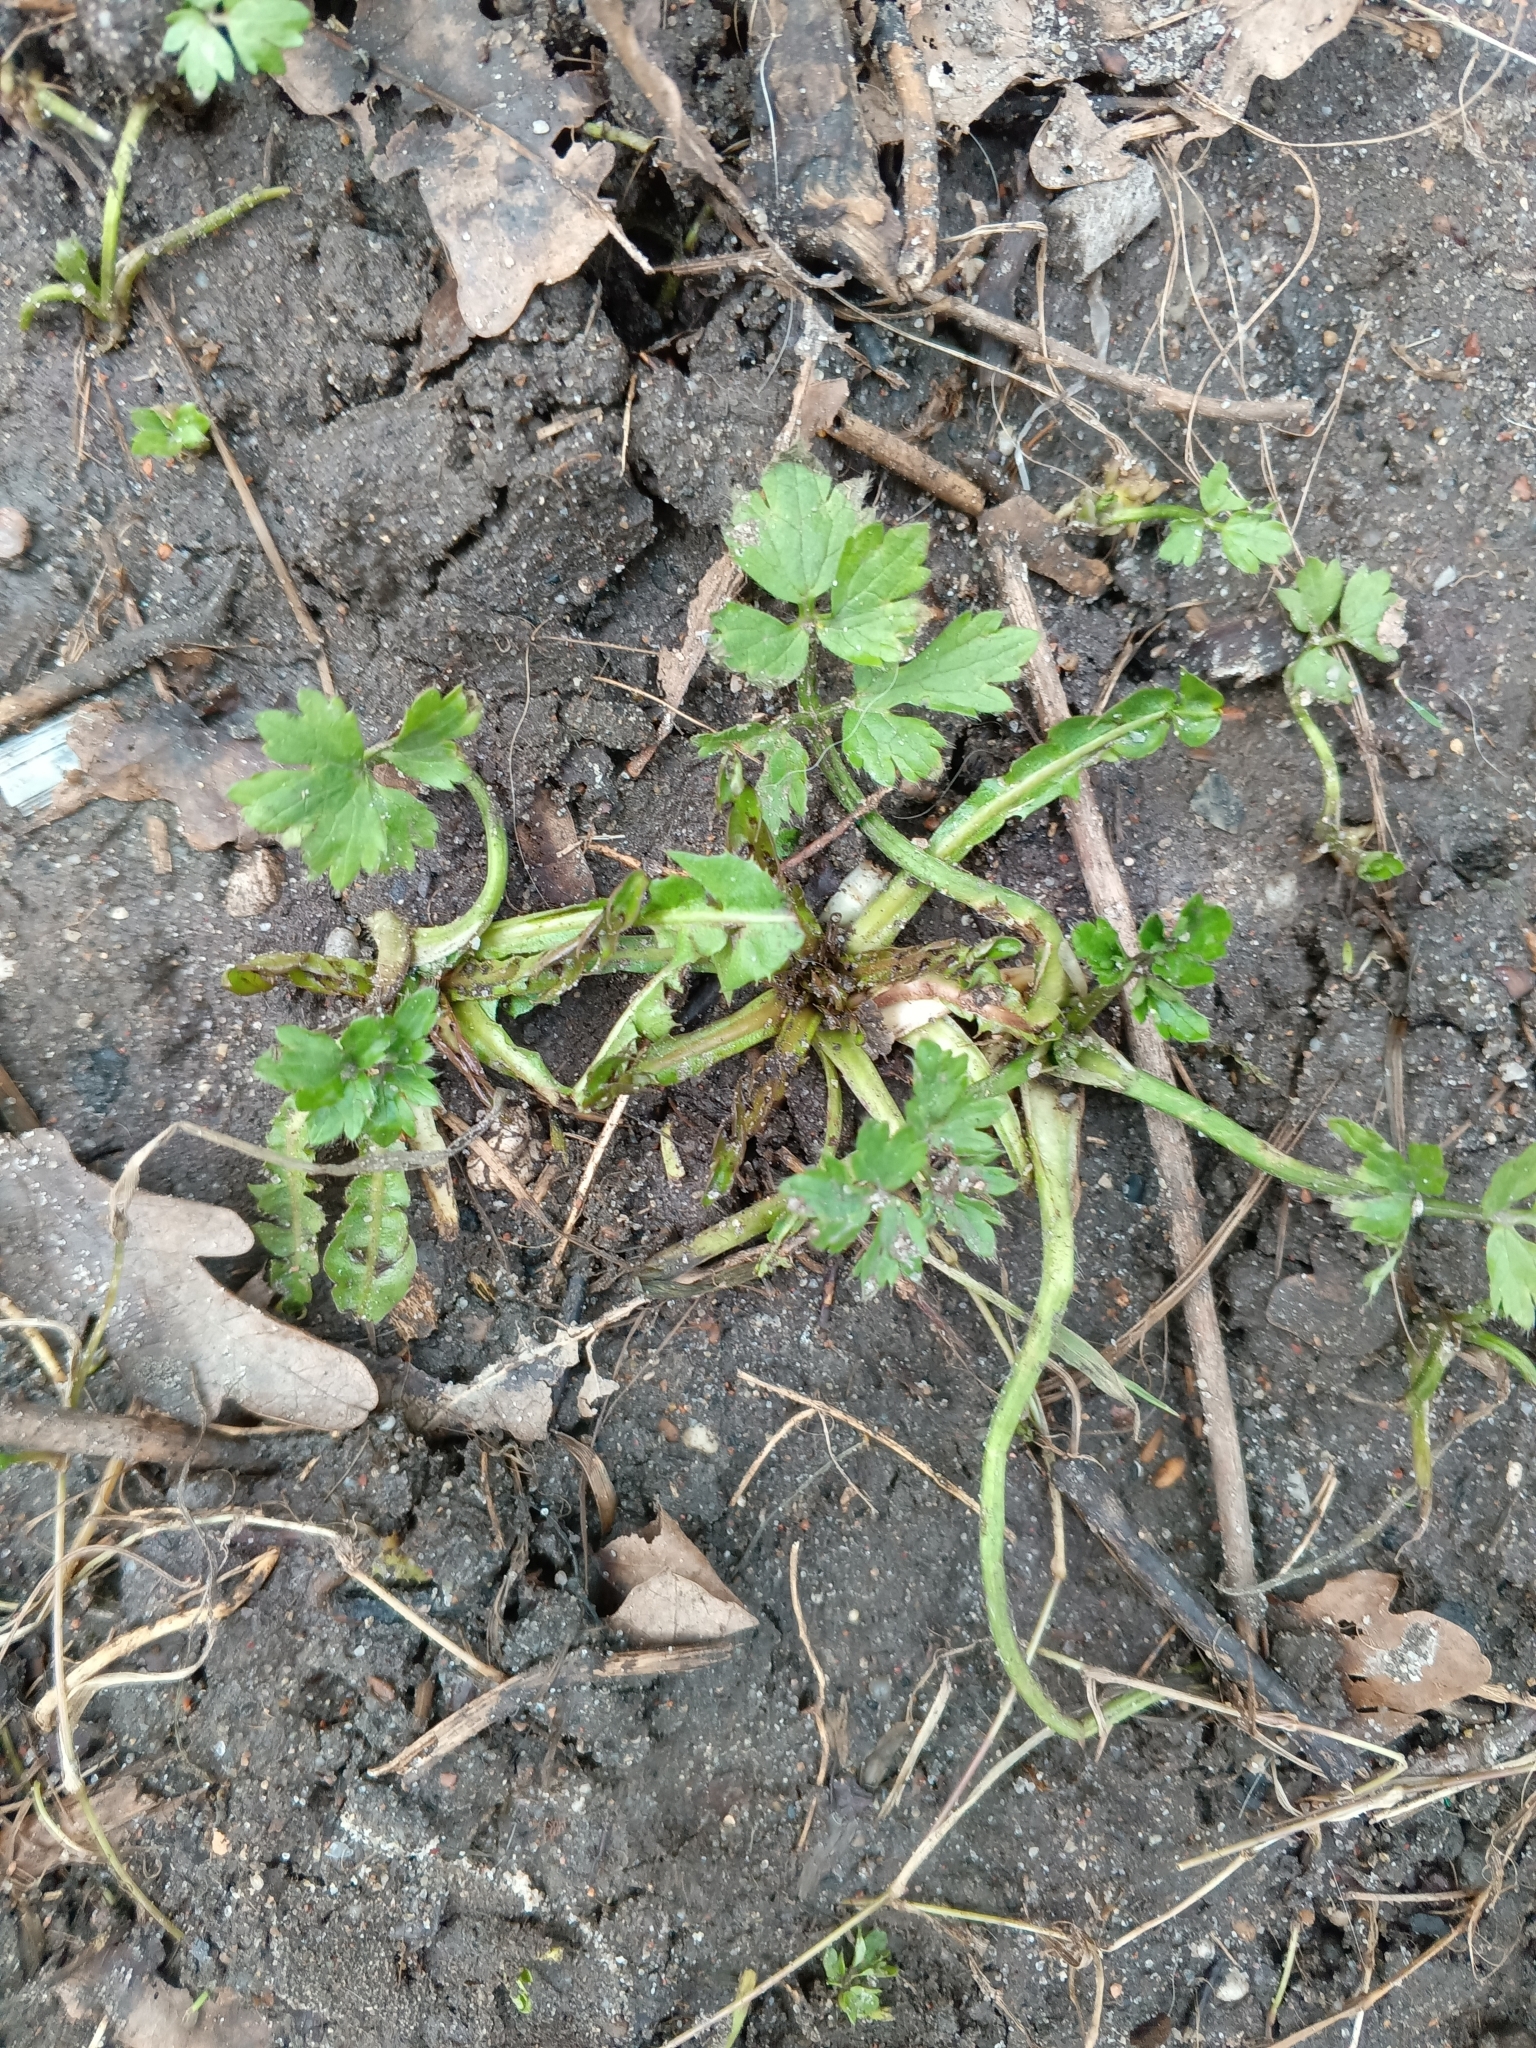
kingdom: Plantae
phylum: Tracheophyta
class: Magnoliopsida
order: Ranunculales
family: Ranunculaceae
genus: Ranunculus
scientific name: Ranunculus repens
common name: Creeping buttercup
